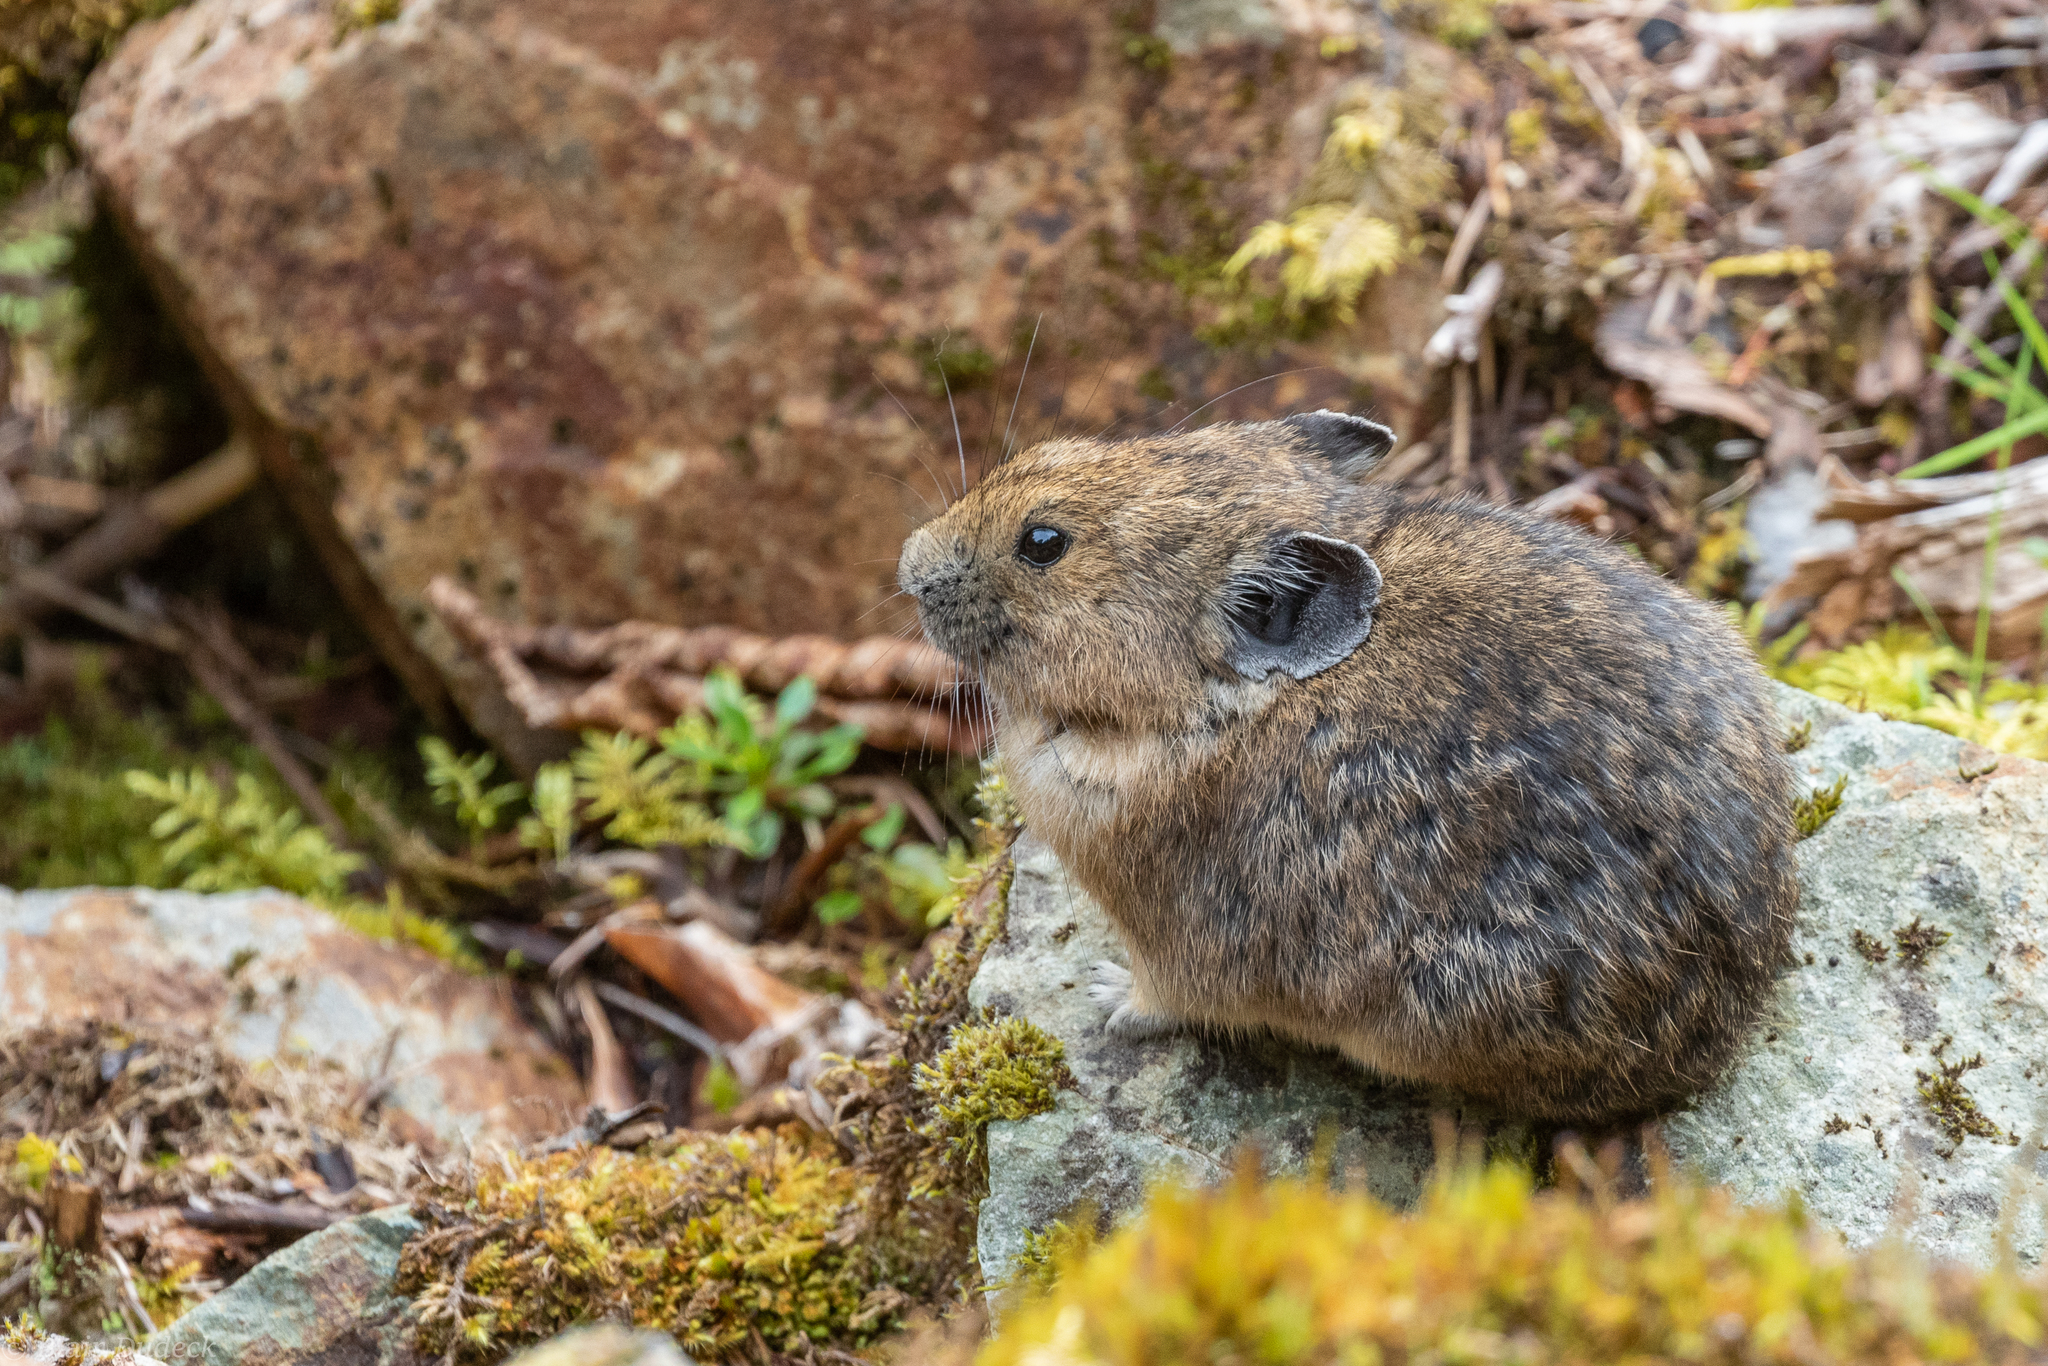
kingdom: Animalia
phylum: Chordata
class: Mammalia
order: Lagomorpha
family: Ochotonidae
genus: Ochotona
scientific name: Ochotona princeps
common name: American pika
